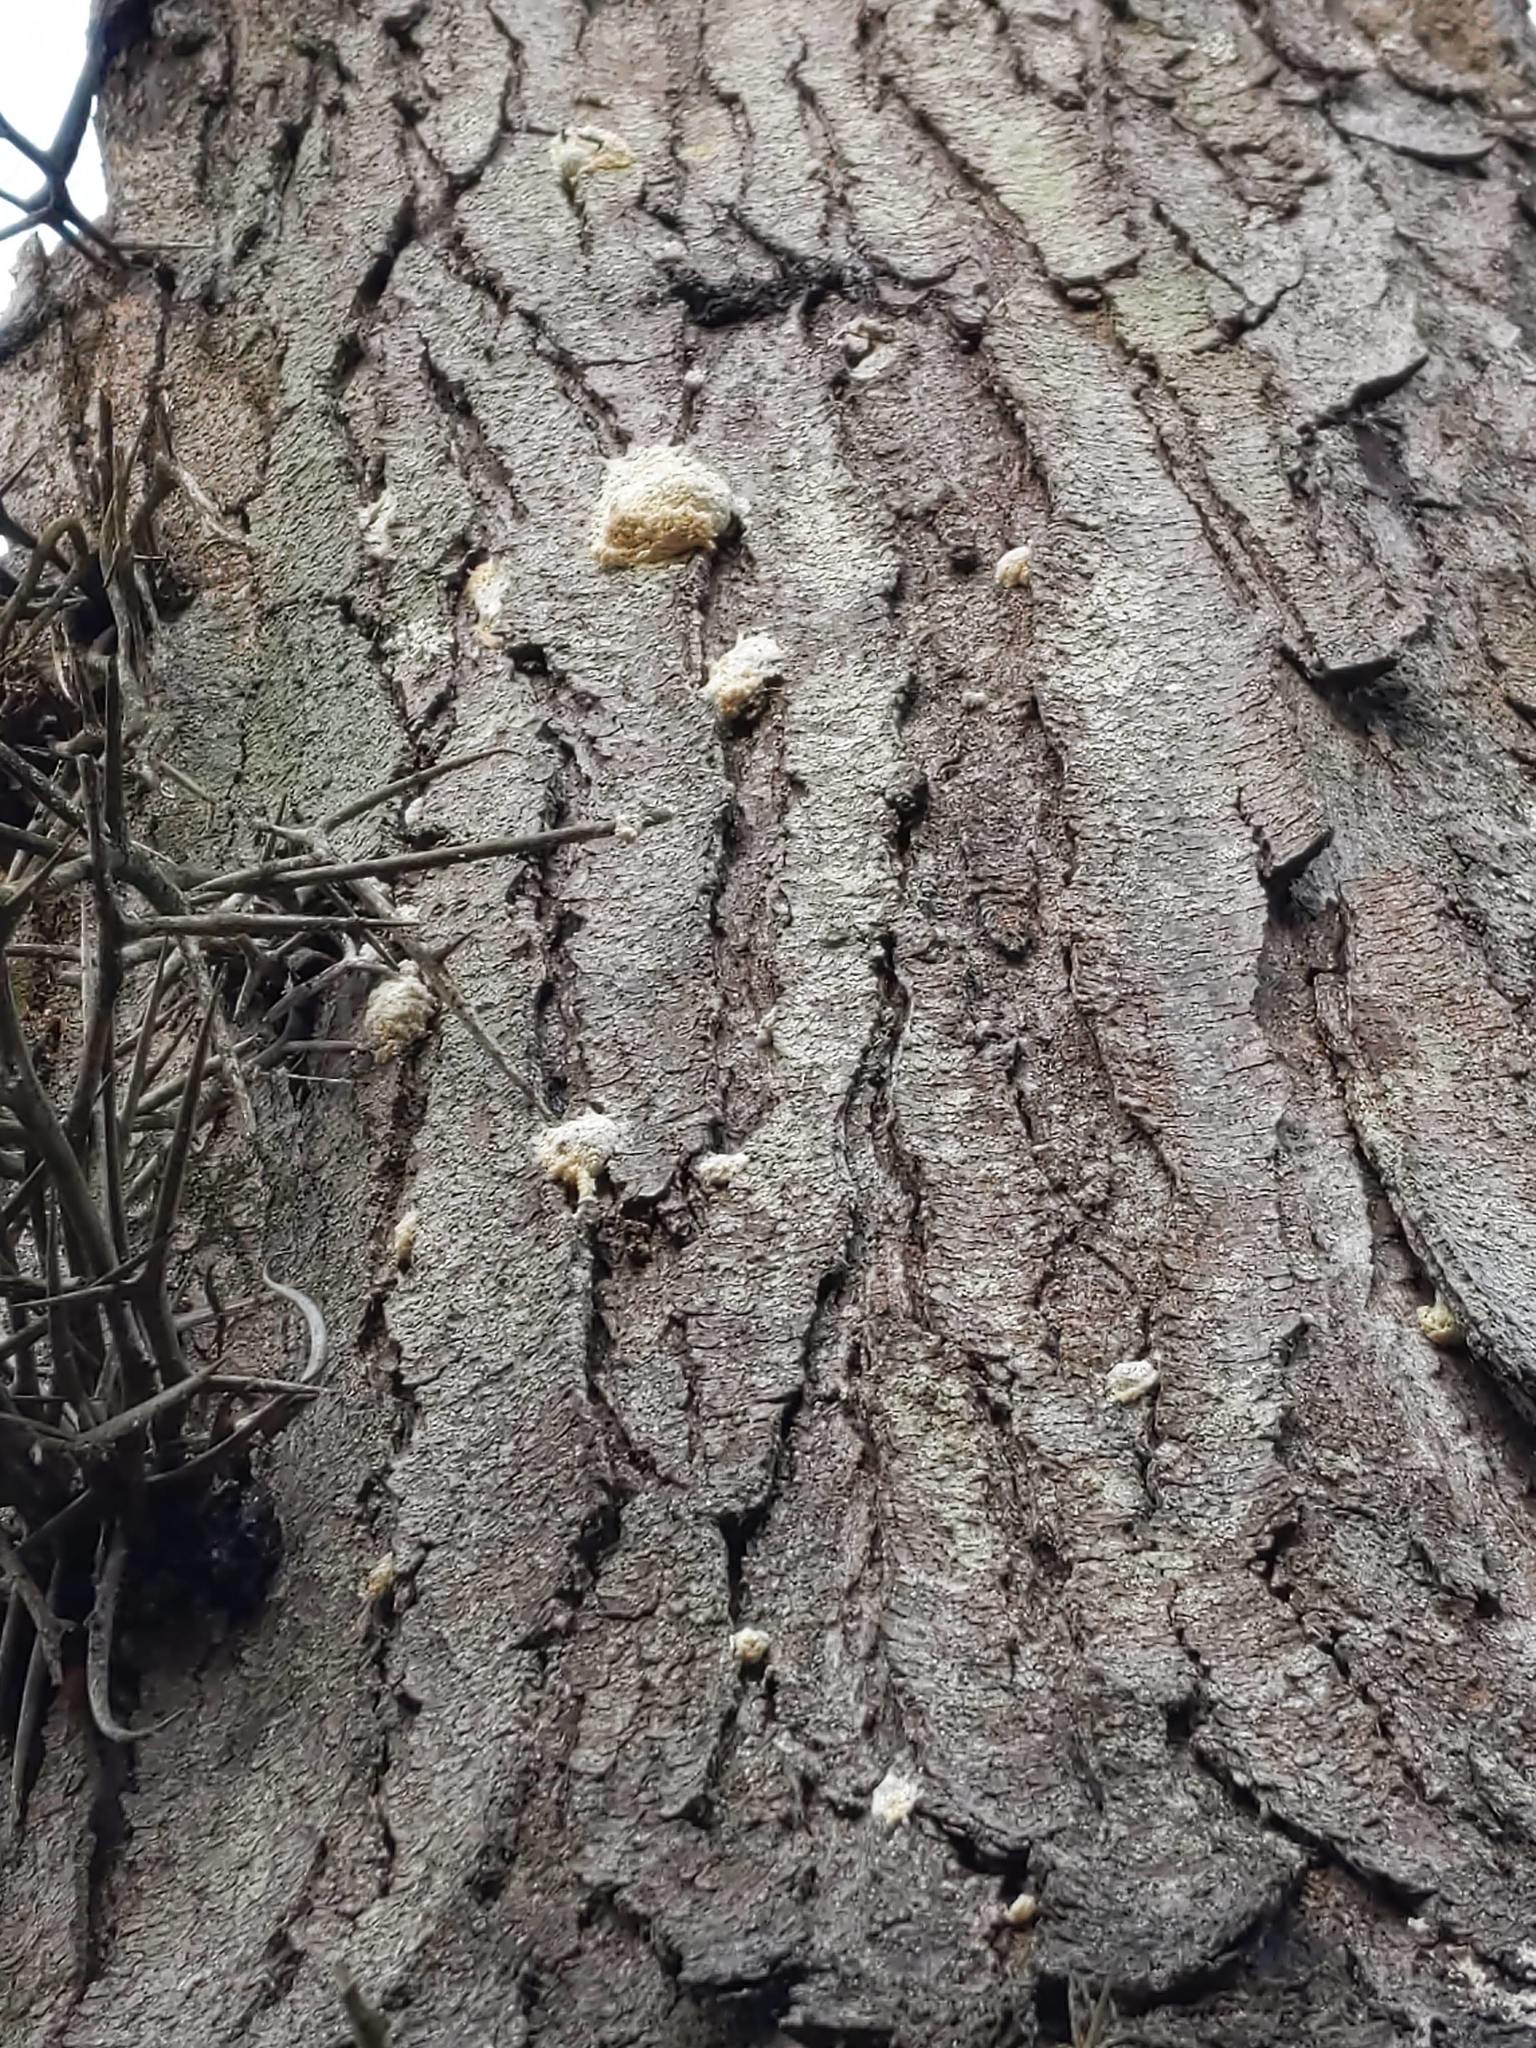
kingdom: Animalia
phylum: Arthropoda
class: Insecta
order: Lepidoptera
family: Erebidae
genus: Lymantria
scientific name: Lymantria dispar
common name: Gypsy moth
